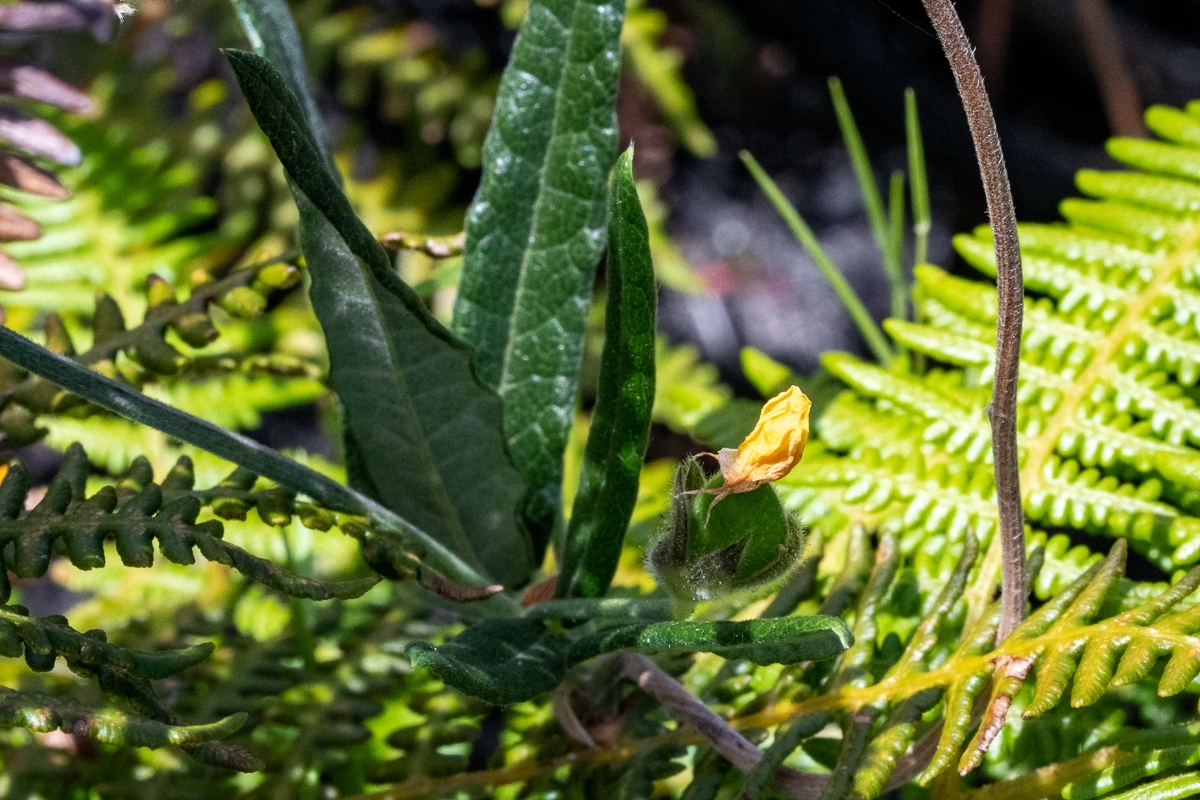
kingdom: Plantae
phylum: Tracheophyta
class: Magnoliopsida
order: Fabales
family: Fabaceae
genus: Rhynchosia
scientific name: Rhynchosia leucoscias
